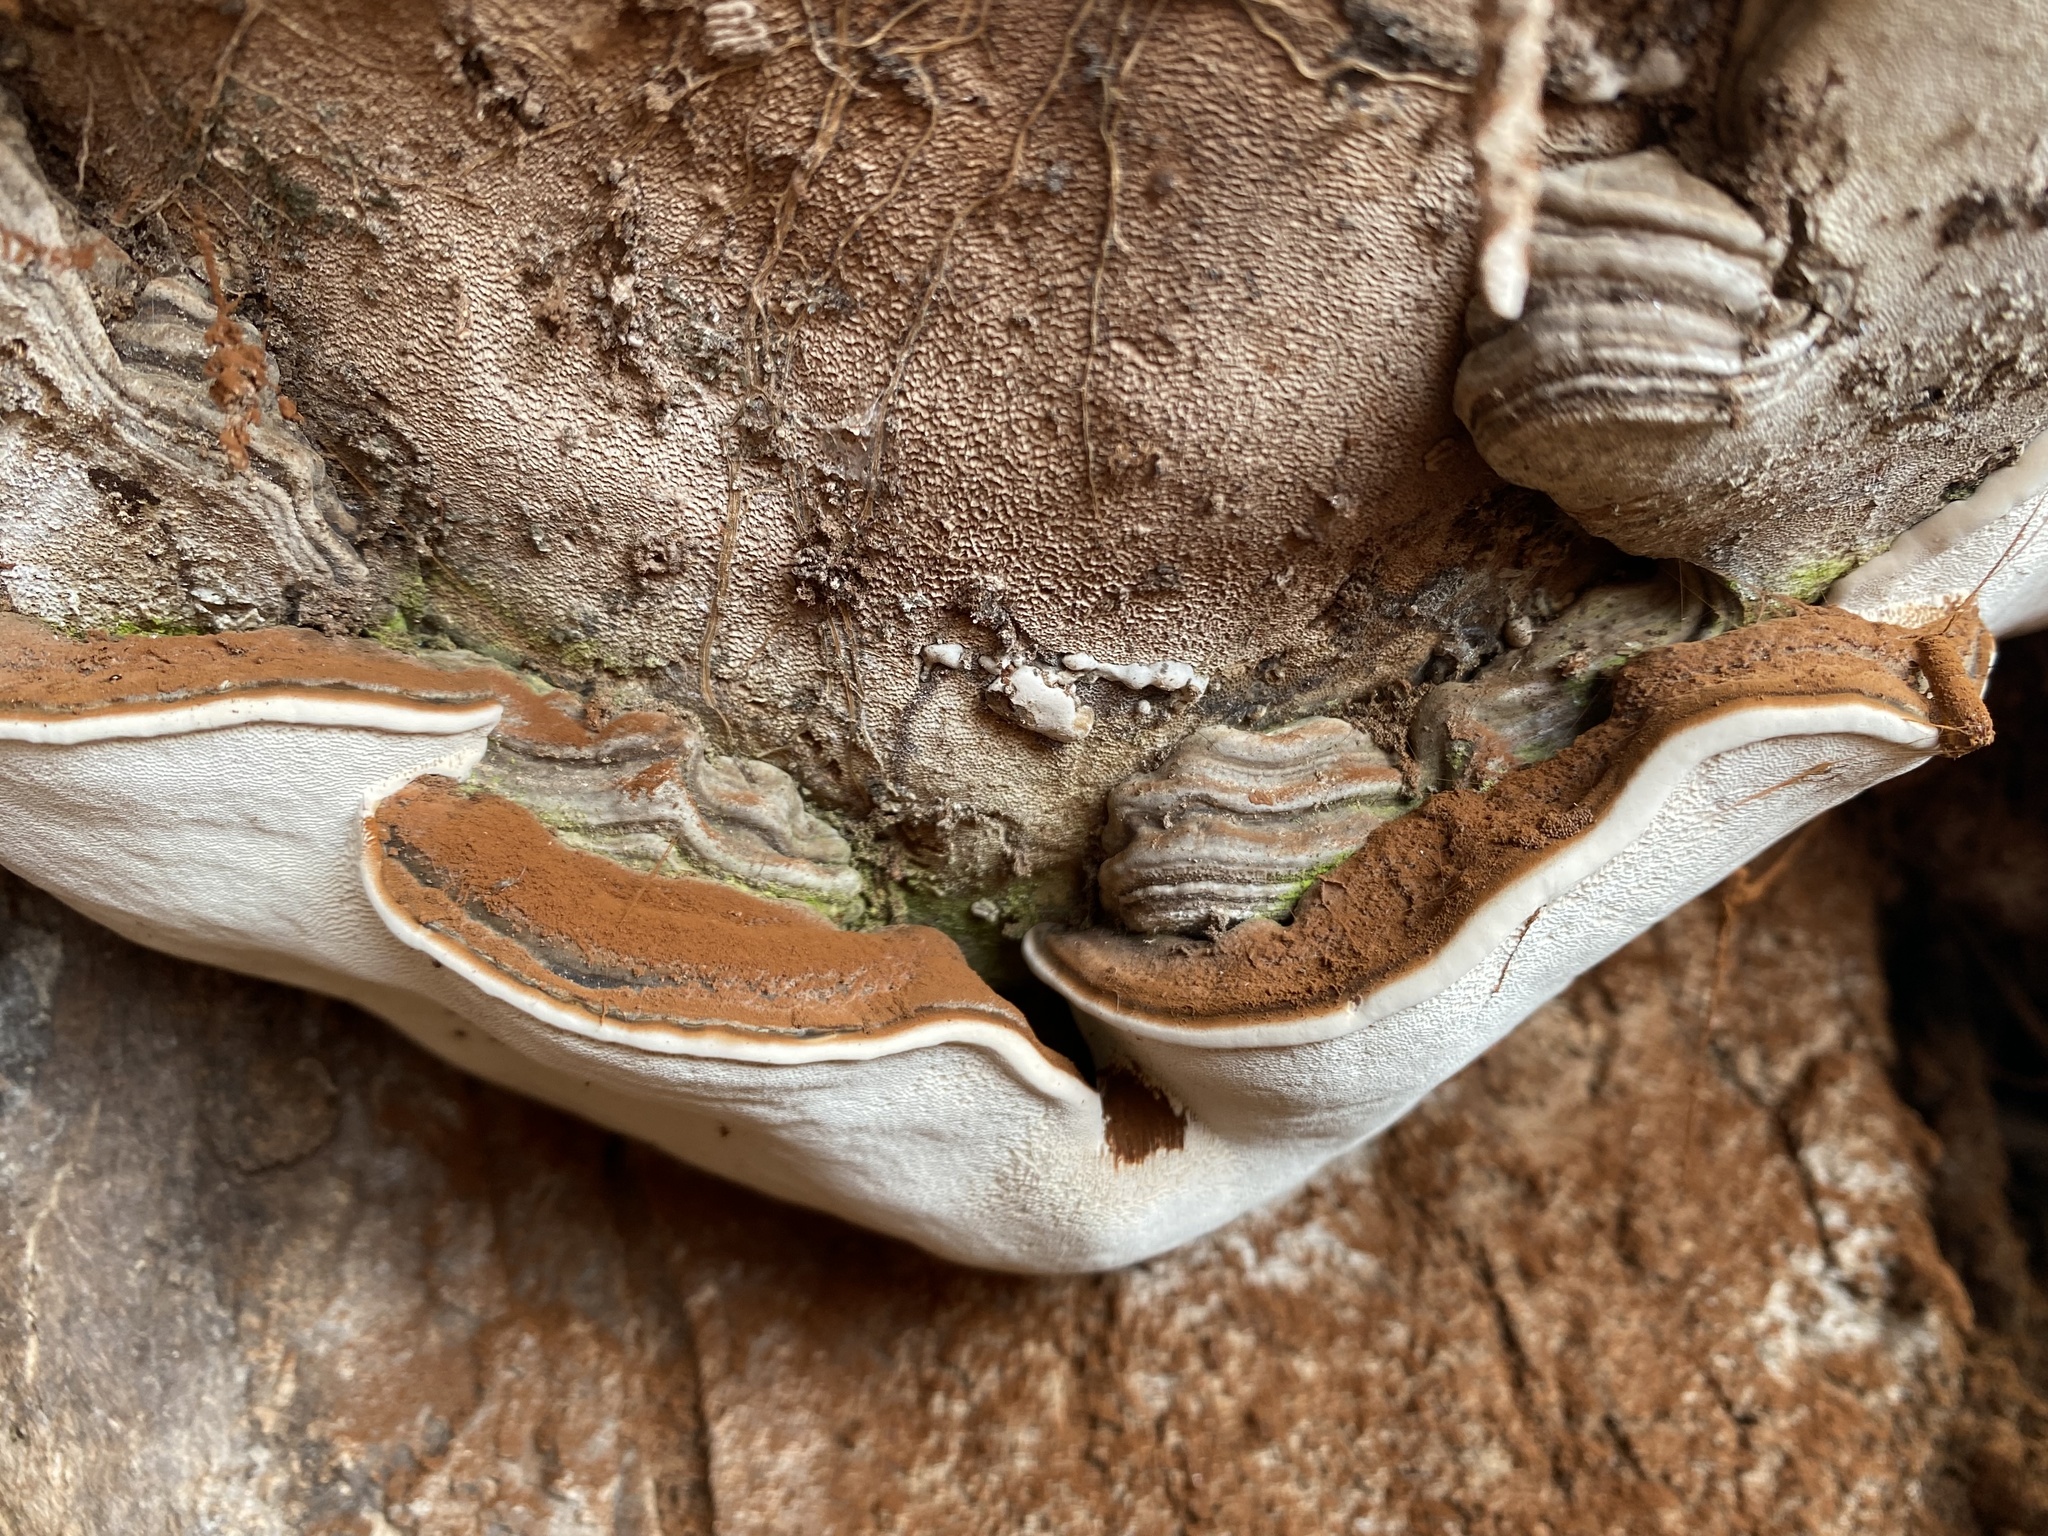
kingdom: Fungi
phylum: Basidiomycota
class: Agaricomycetes
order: Polyporales
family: Polyporaceae
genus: Ganoderma
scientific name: Ganoderma brownii
